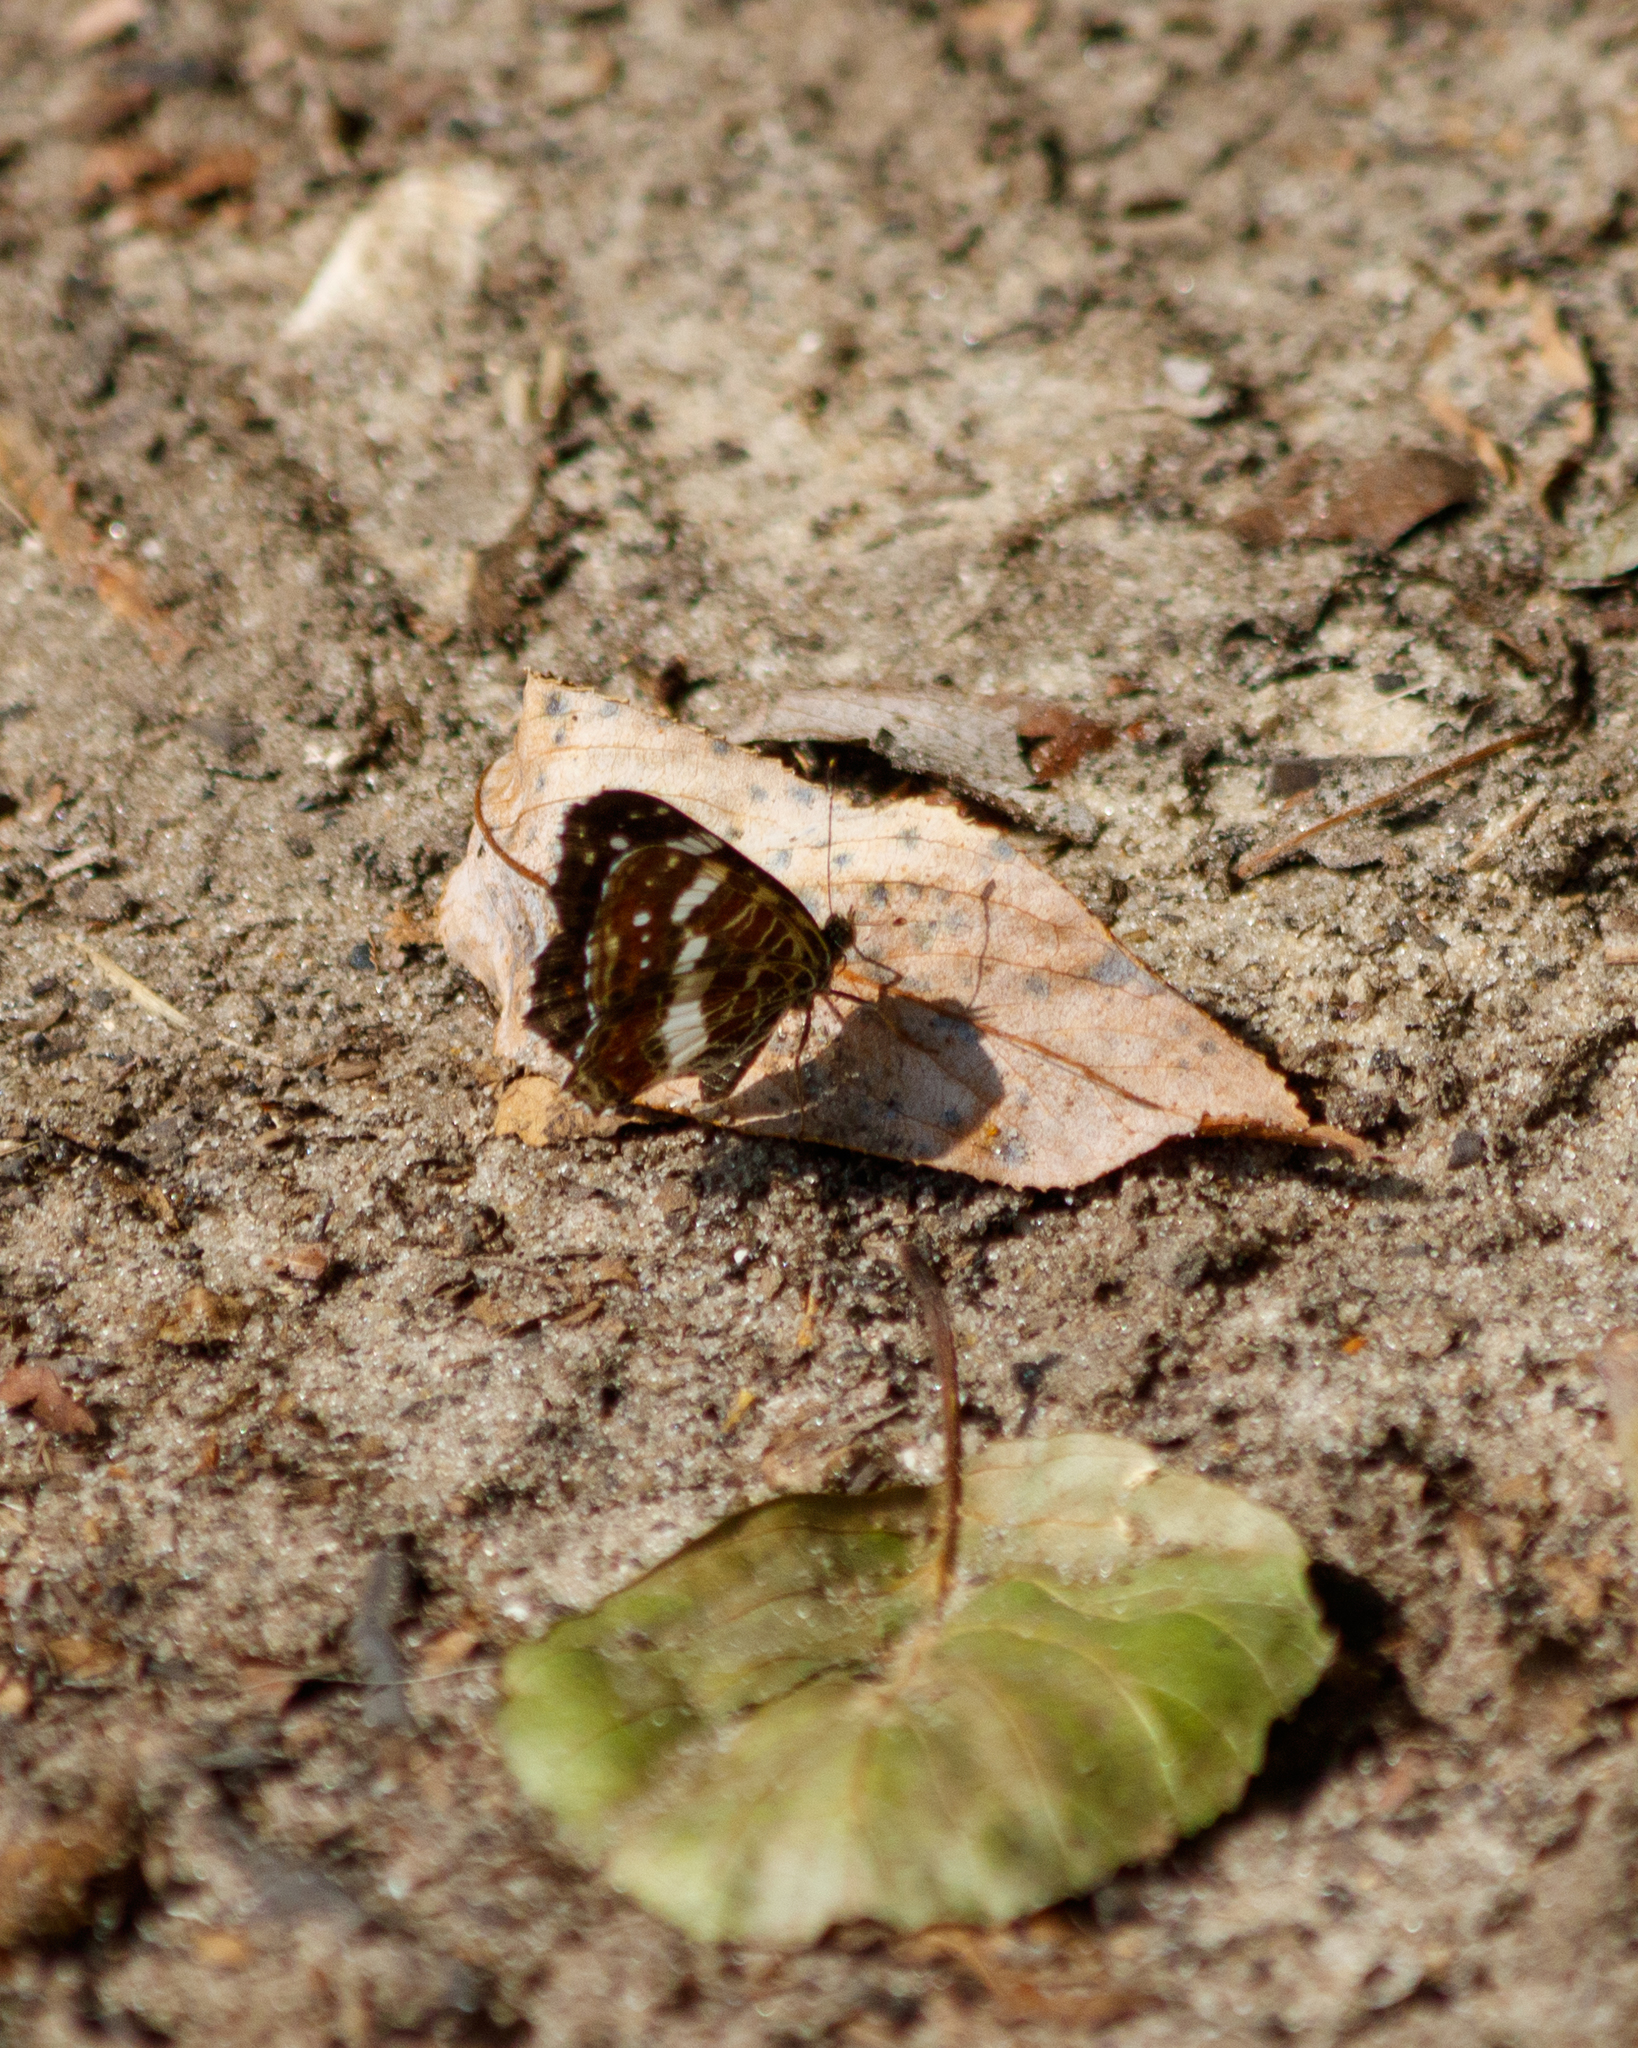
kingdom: Animalia
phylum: Arthropoda
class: Insecta
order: Lepidoptera
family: Nymphalidae
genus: Araschnia
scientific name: Araschnia levana
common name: Map butterfly
